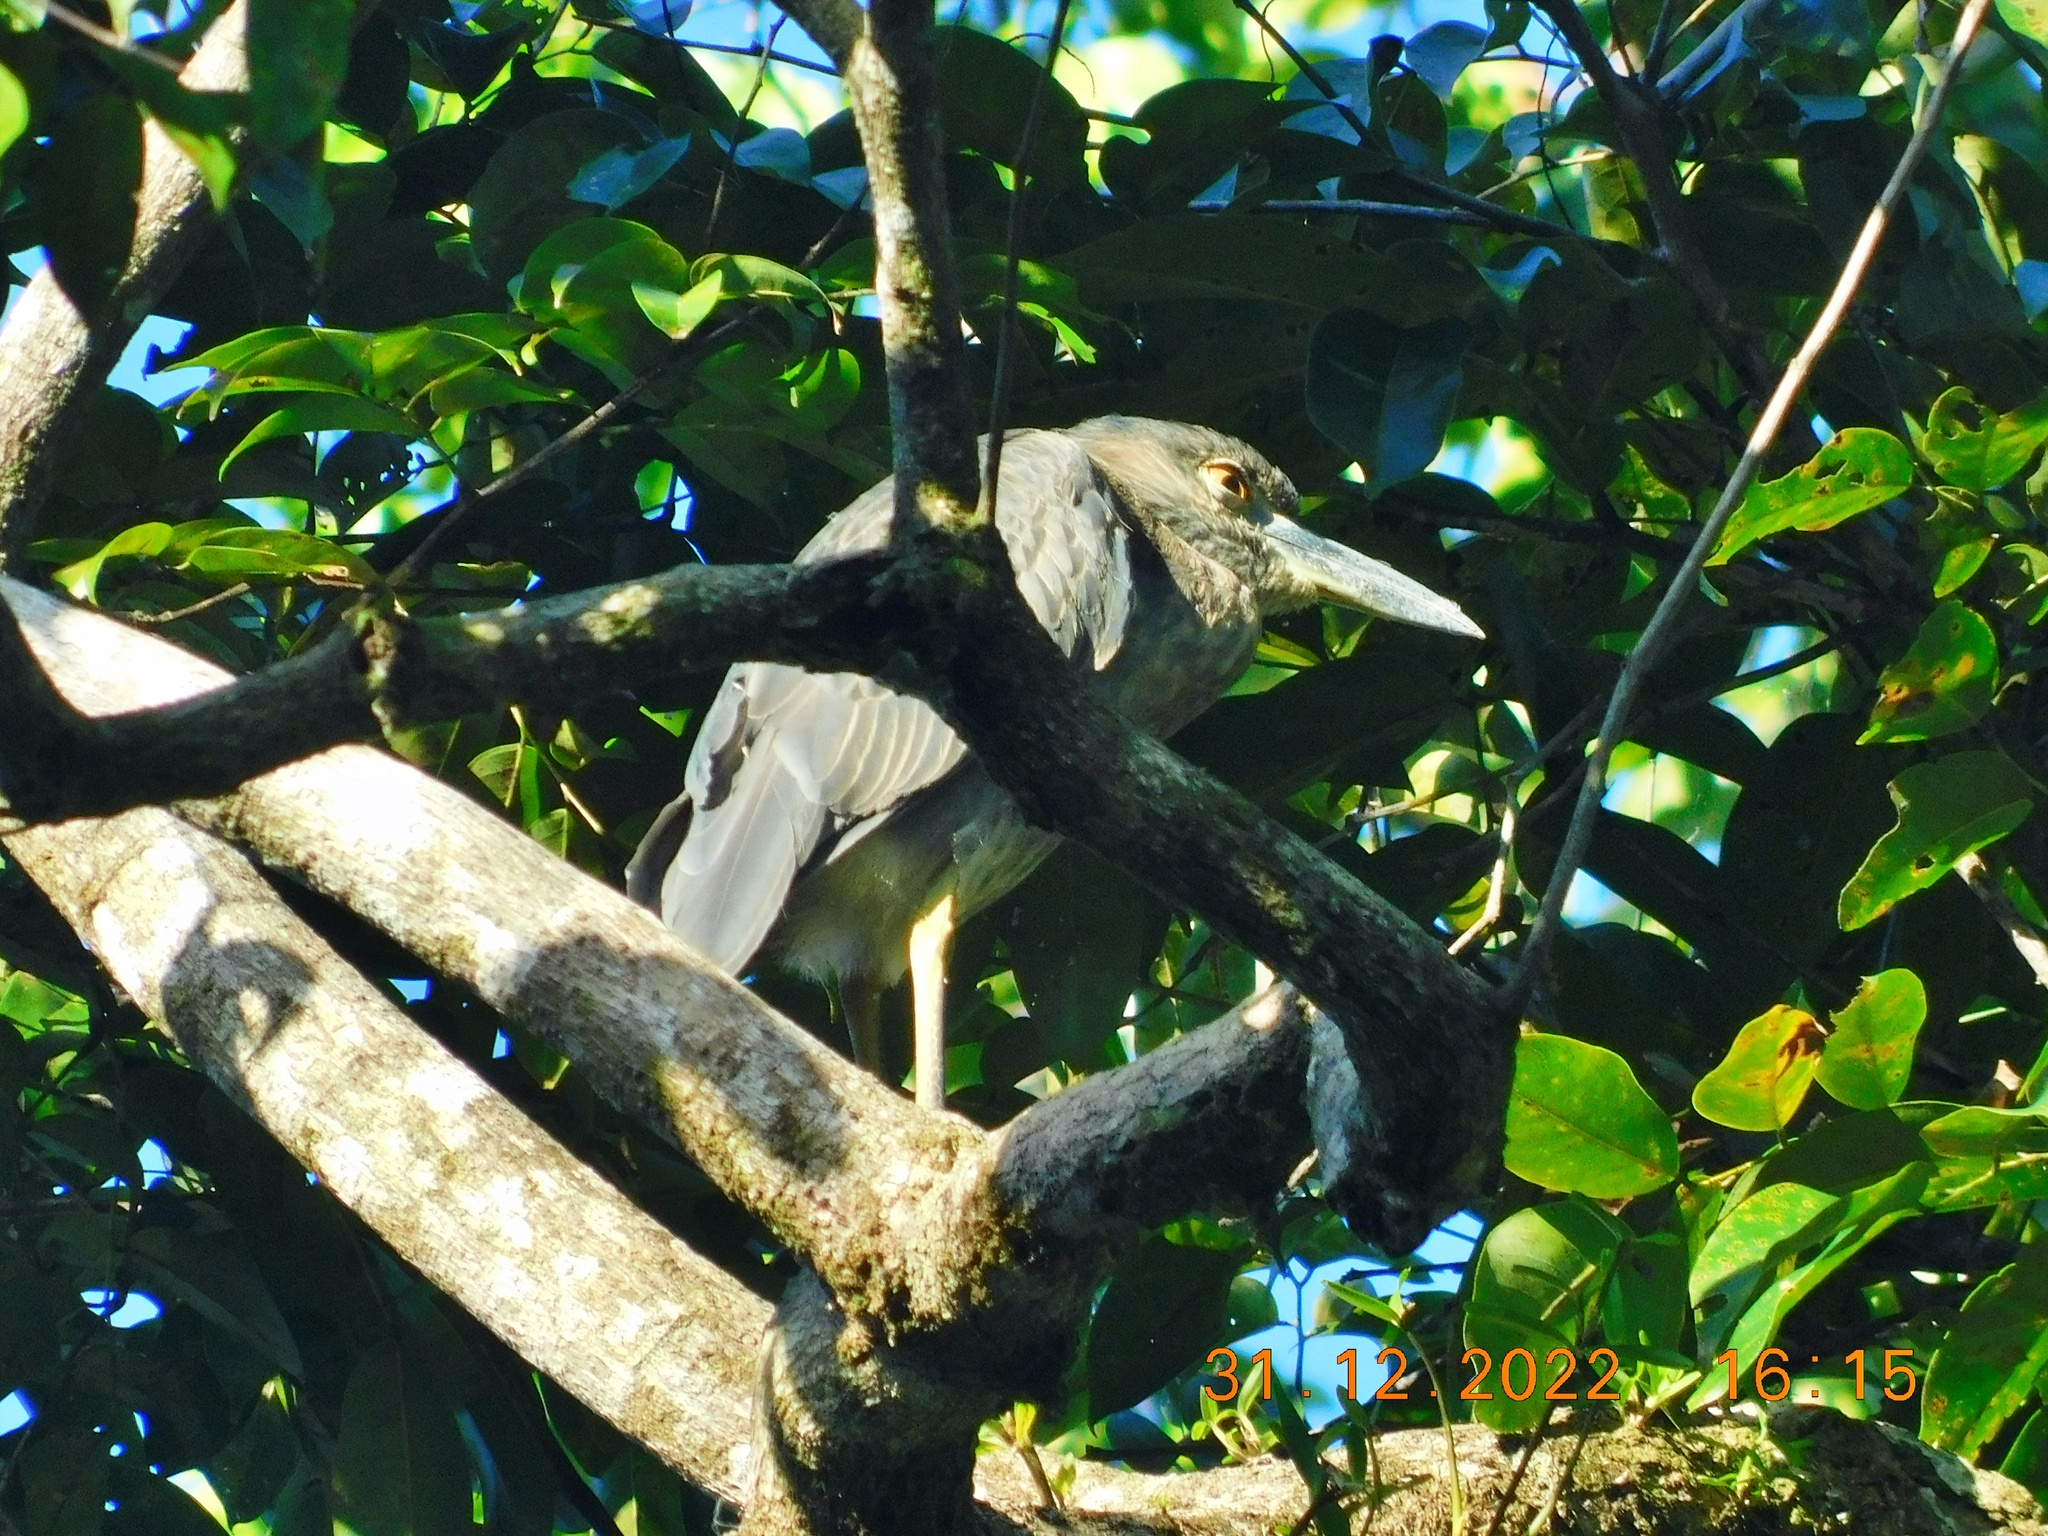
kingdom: Animalia
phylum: Chordata
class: Aves
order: Pelecaniformes
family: Ardeidae
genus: Nyctanassa
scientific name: Nyctanassa violacea
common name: Yellow-crowned night heron
